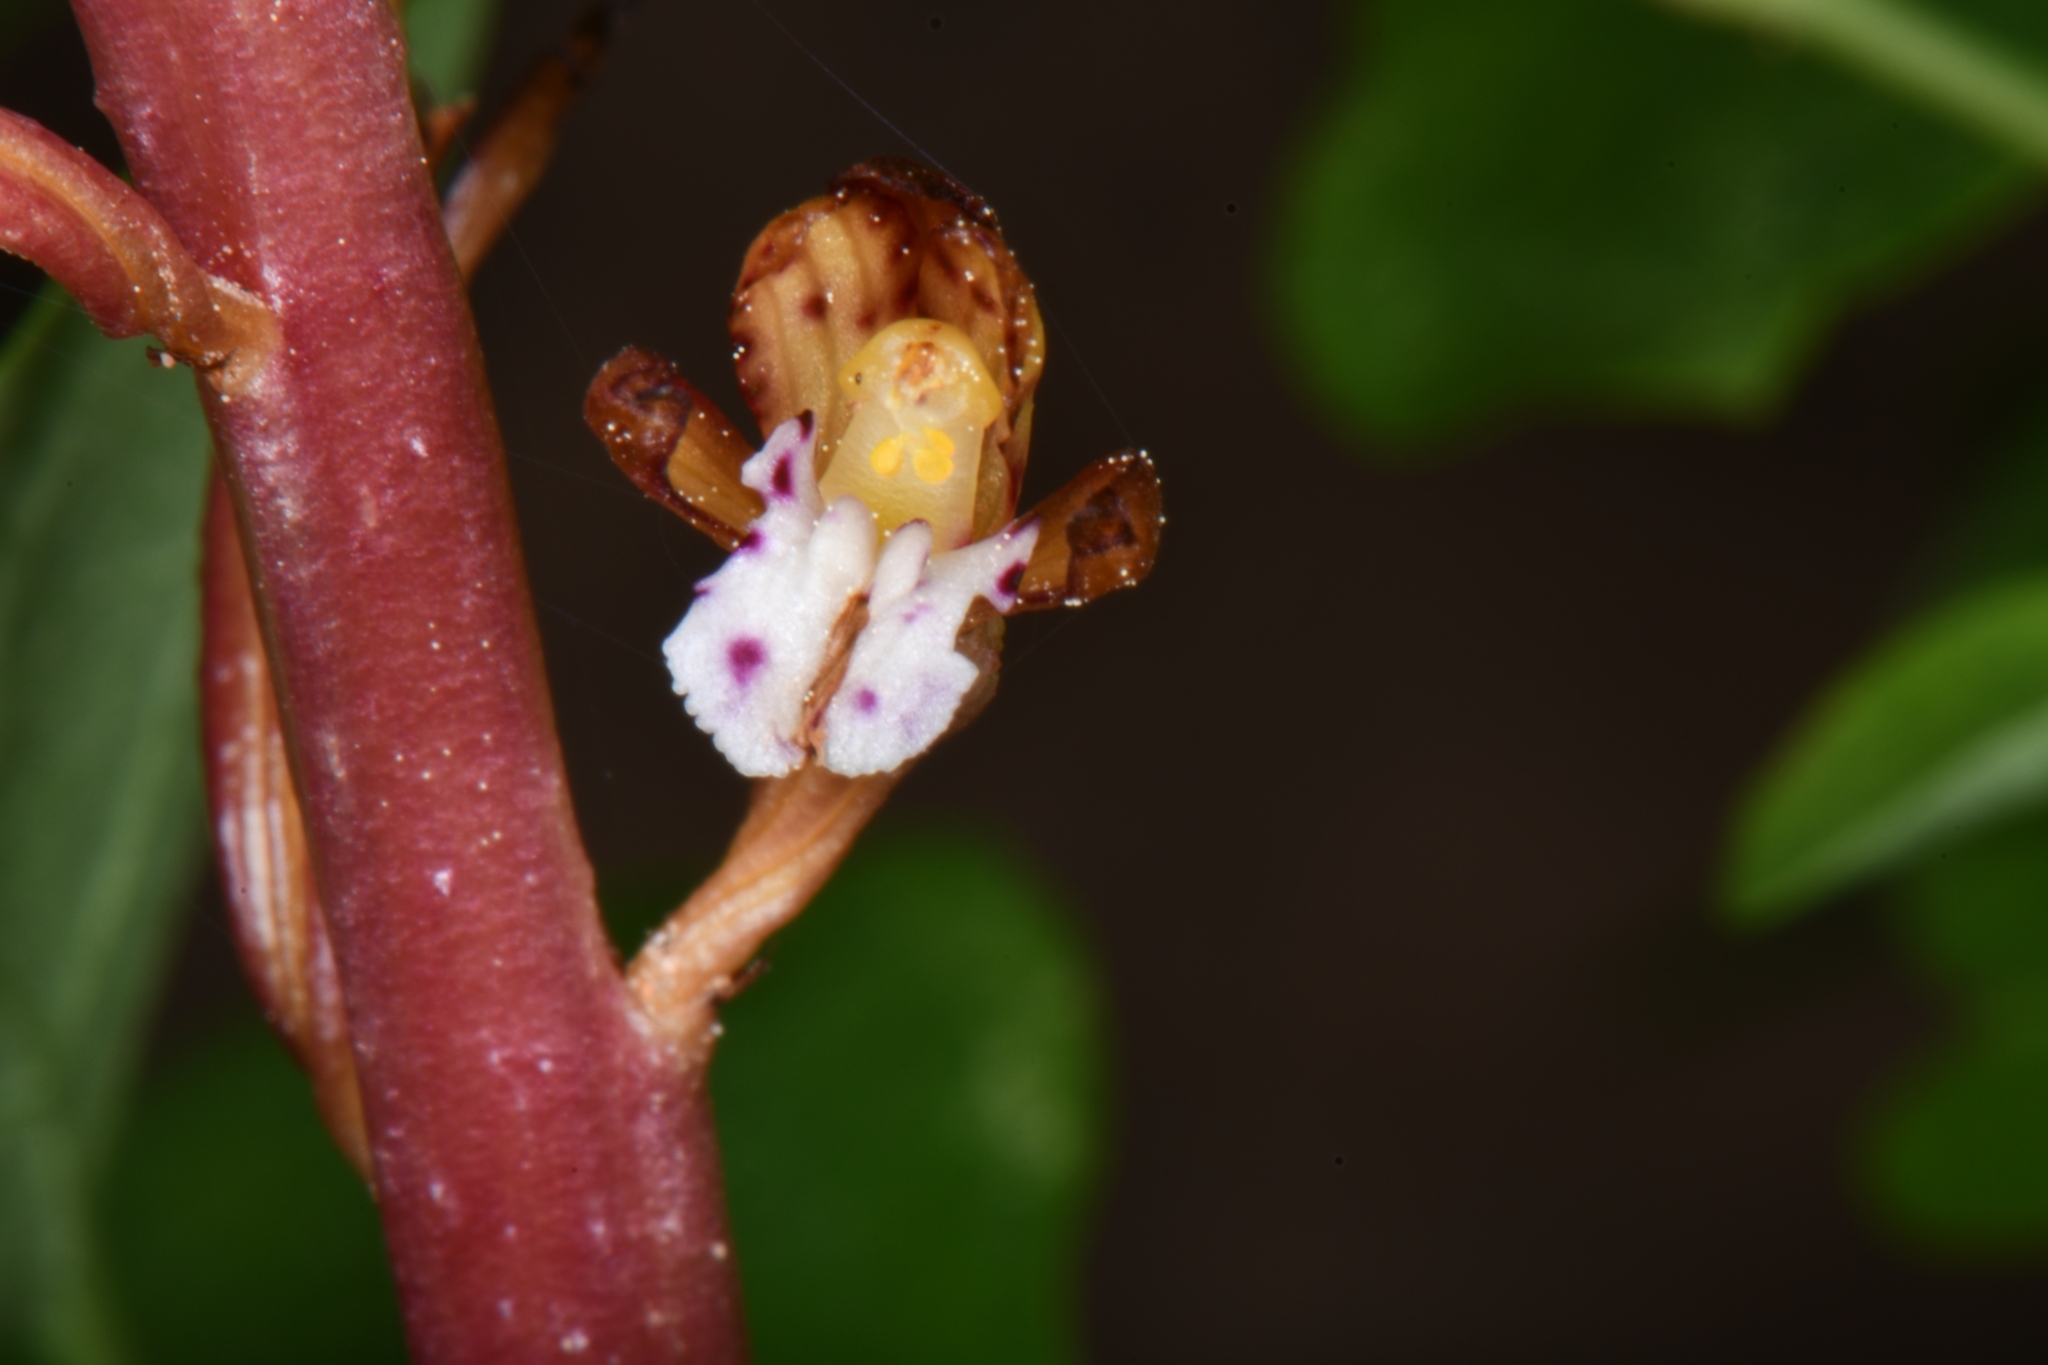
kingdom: Plantae
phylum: Tracheophyta
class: Liliopsida
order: Asparagales
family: Orchidaceae
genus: Corallorhiza
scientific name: Corallorhiza maculata
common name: Spotted coralroot
